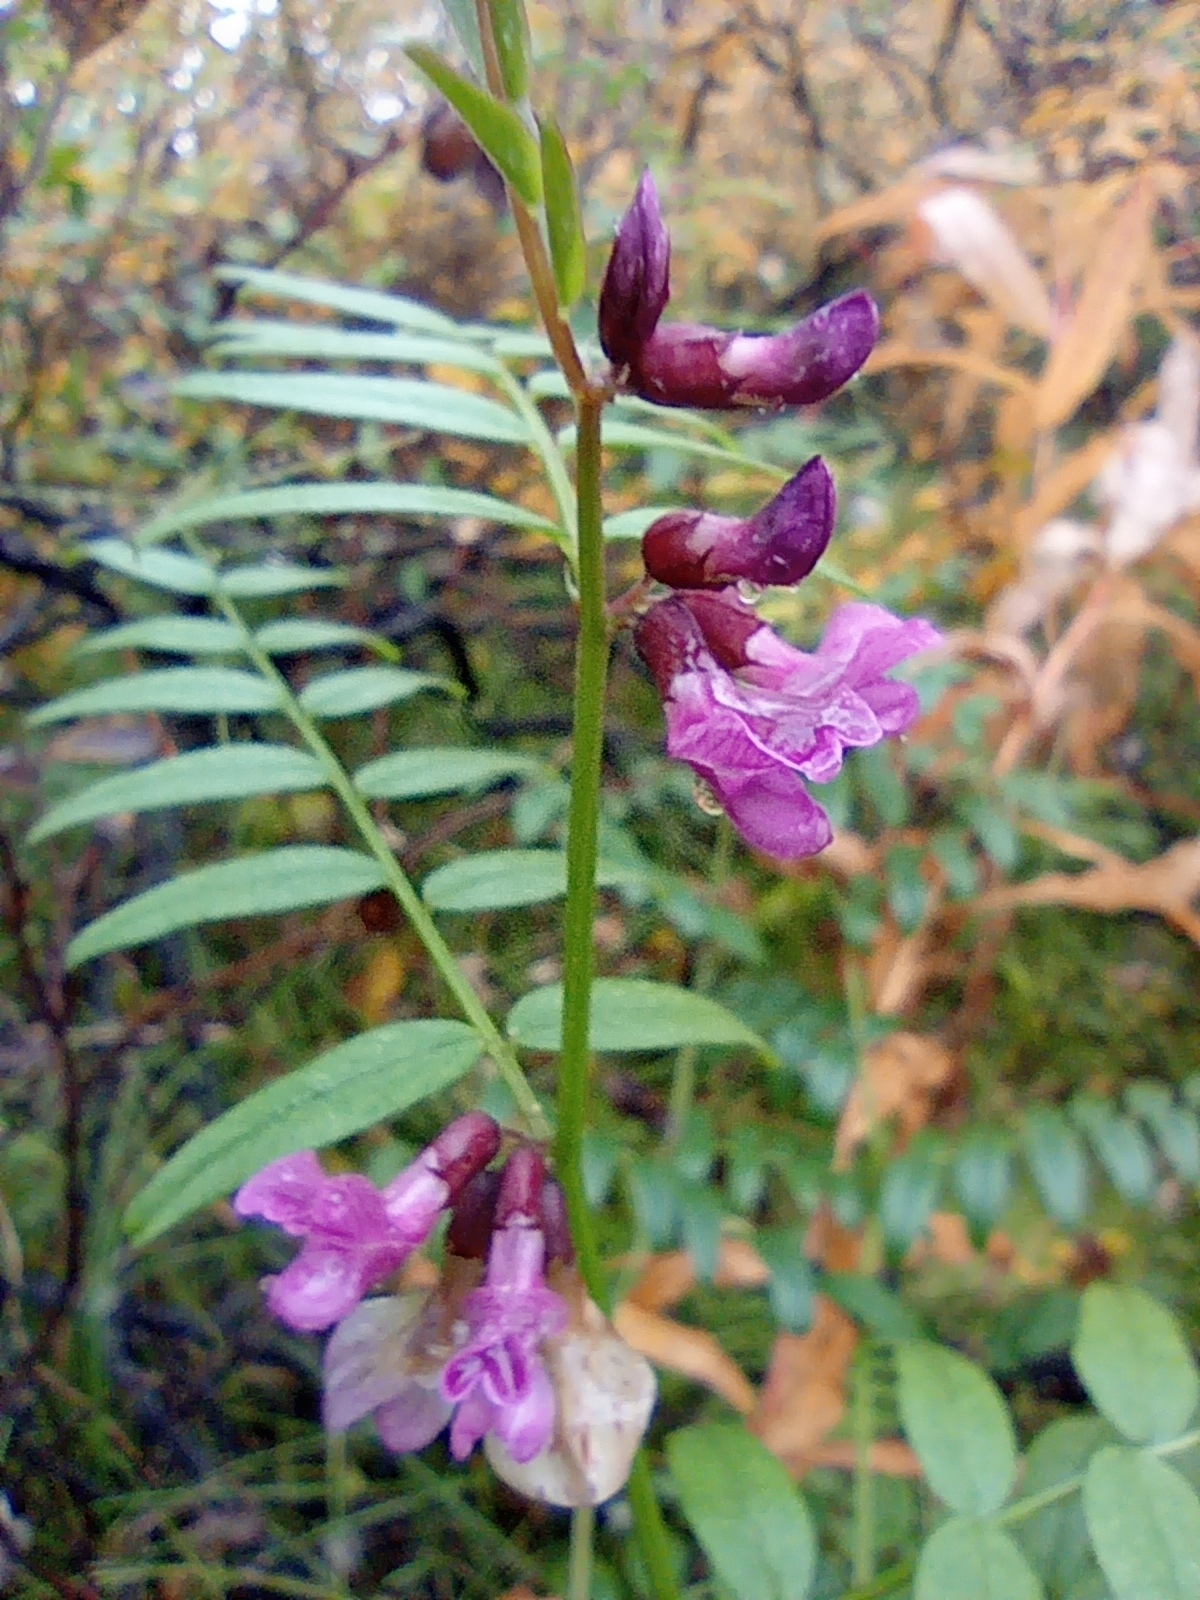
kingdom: Plantae
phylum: Tracheophyta
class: Magnoliopsida
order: Fabales
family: Fabaceae
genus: Vicia
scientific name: Vicia sepium
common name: Bush vetch
